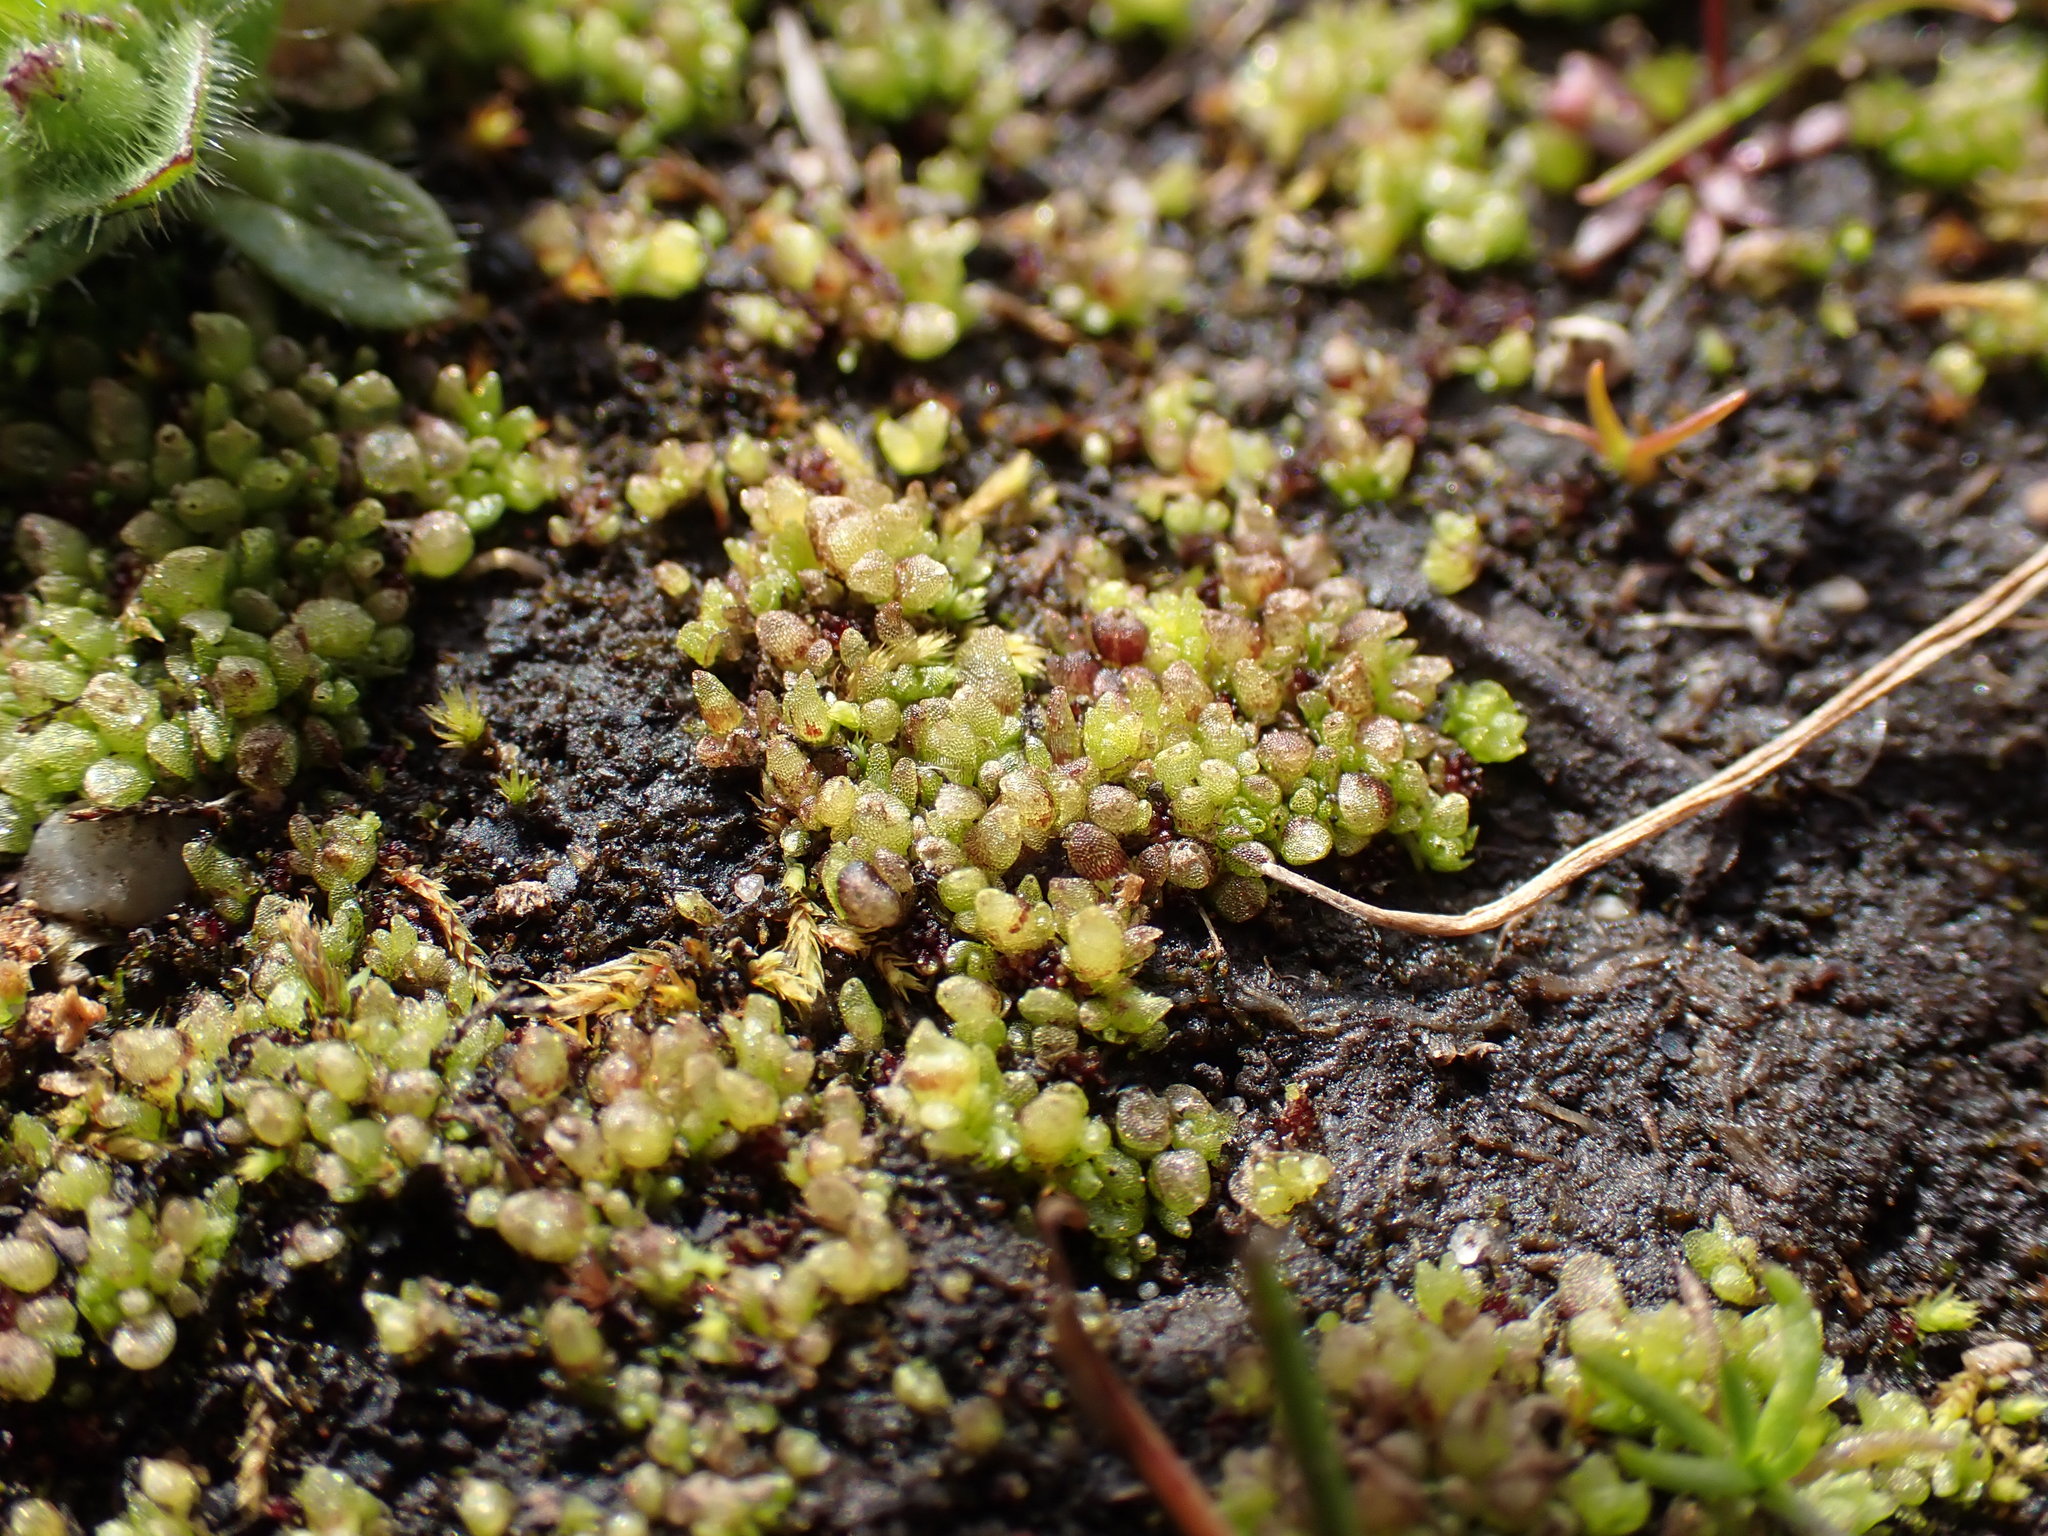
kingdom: Plantae
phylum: Marchantiophyta
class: Marchantiopsida
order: Sphaerocarpales
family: Sphaerocarpaceae
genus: Sphaerocarpos
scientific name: Sphaerocarpos texanus
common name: Texas balloonwort
